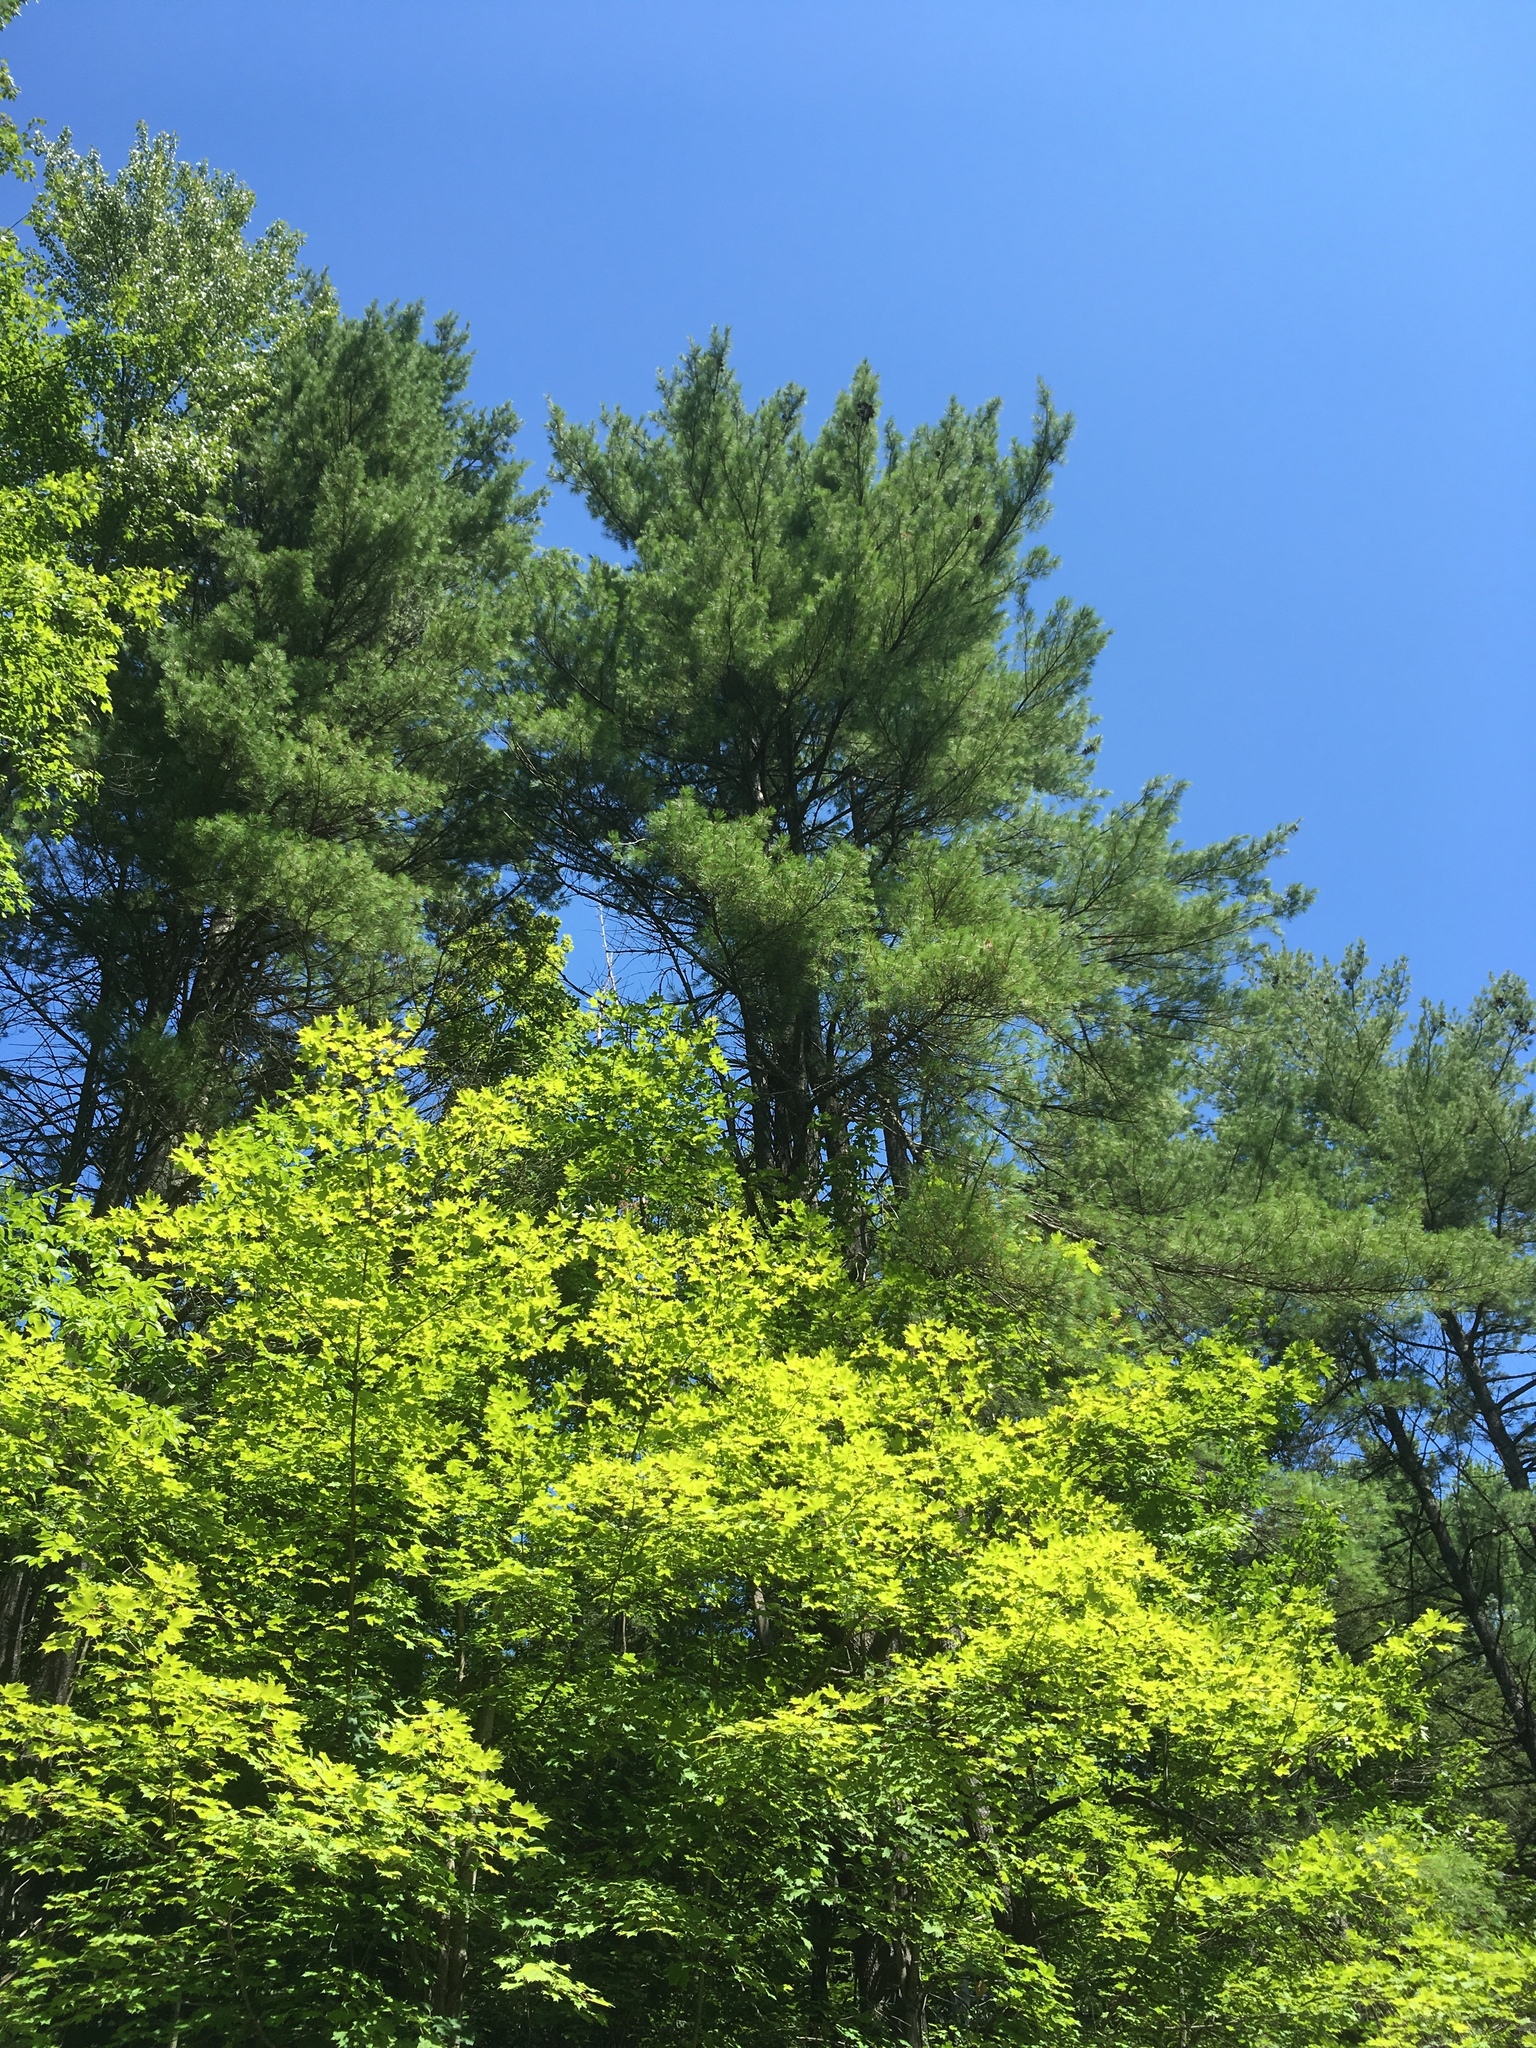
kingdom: Plantae
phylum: Tracheophyta
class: Pinopsida
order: Pinales
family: Pinaceae
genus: Pinus
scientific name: Pinus strobus
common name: Weymouth pine
